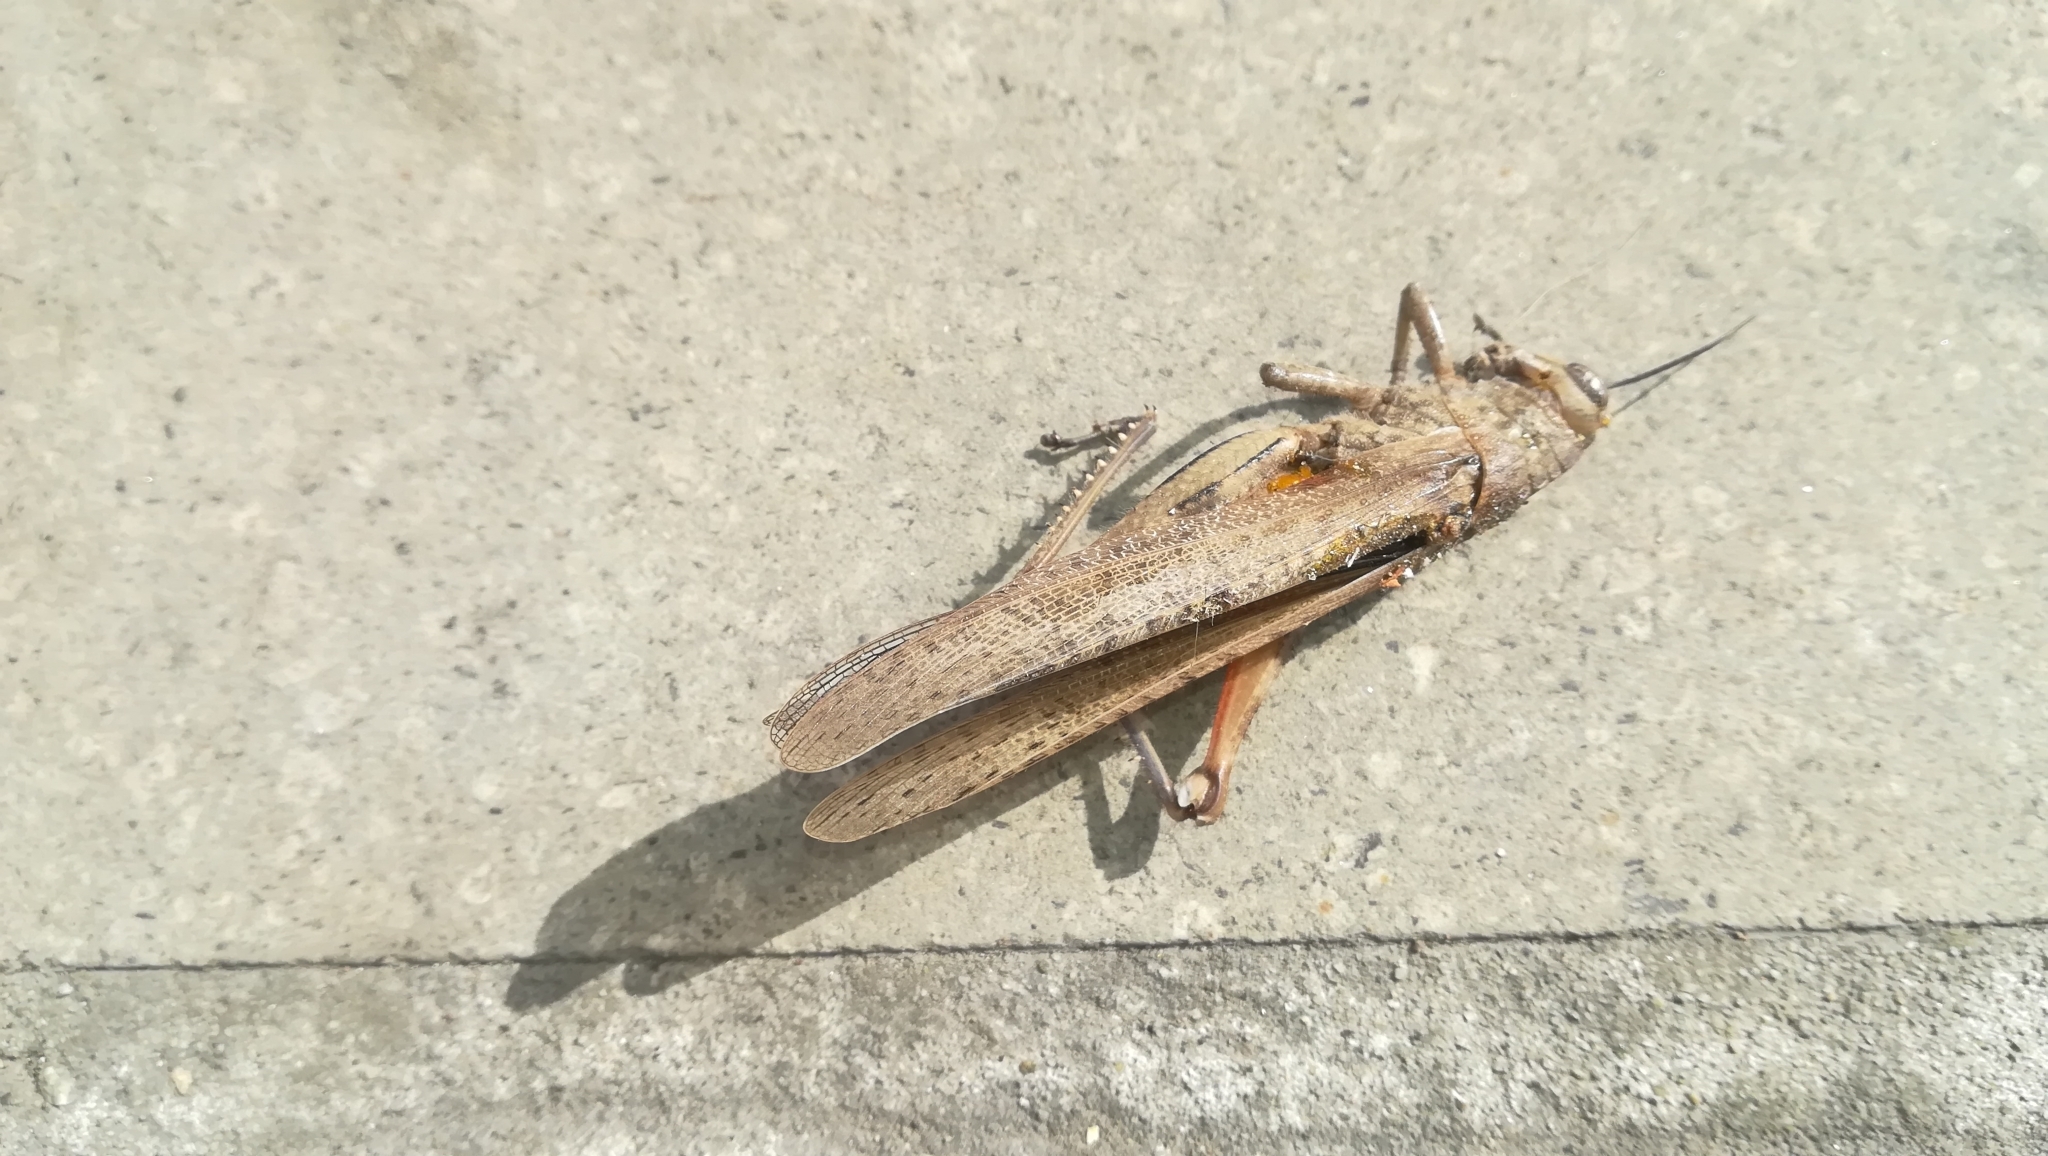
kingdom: Animalia
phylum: Arthropoda
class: Insecta
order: Orthoptera
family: Acrididae
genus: Anacridium
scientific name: Anacridium aegyptium
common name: Egyptian grasshopper
